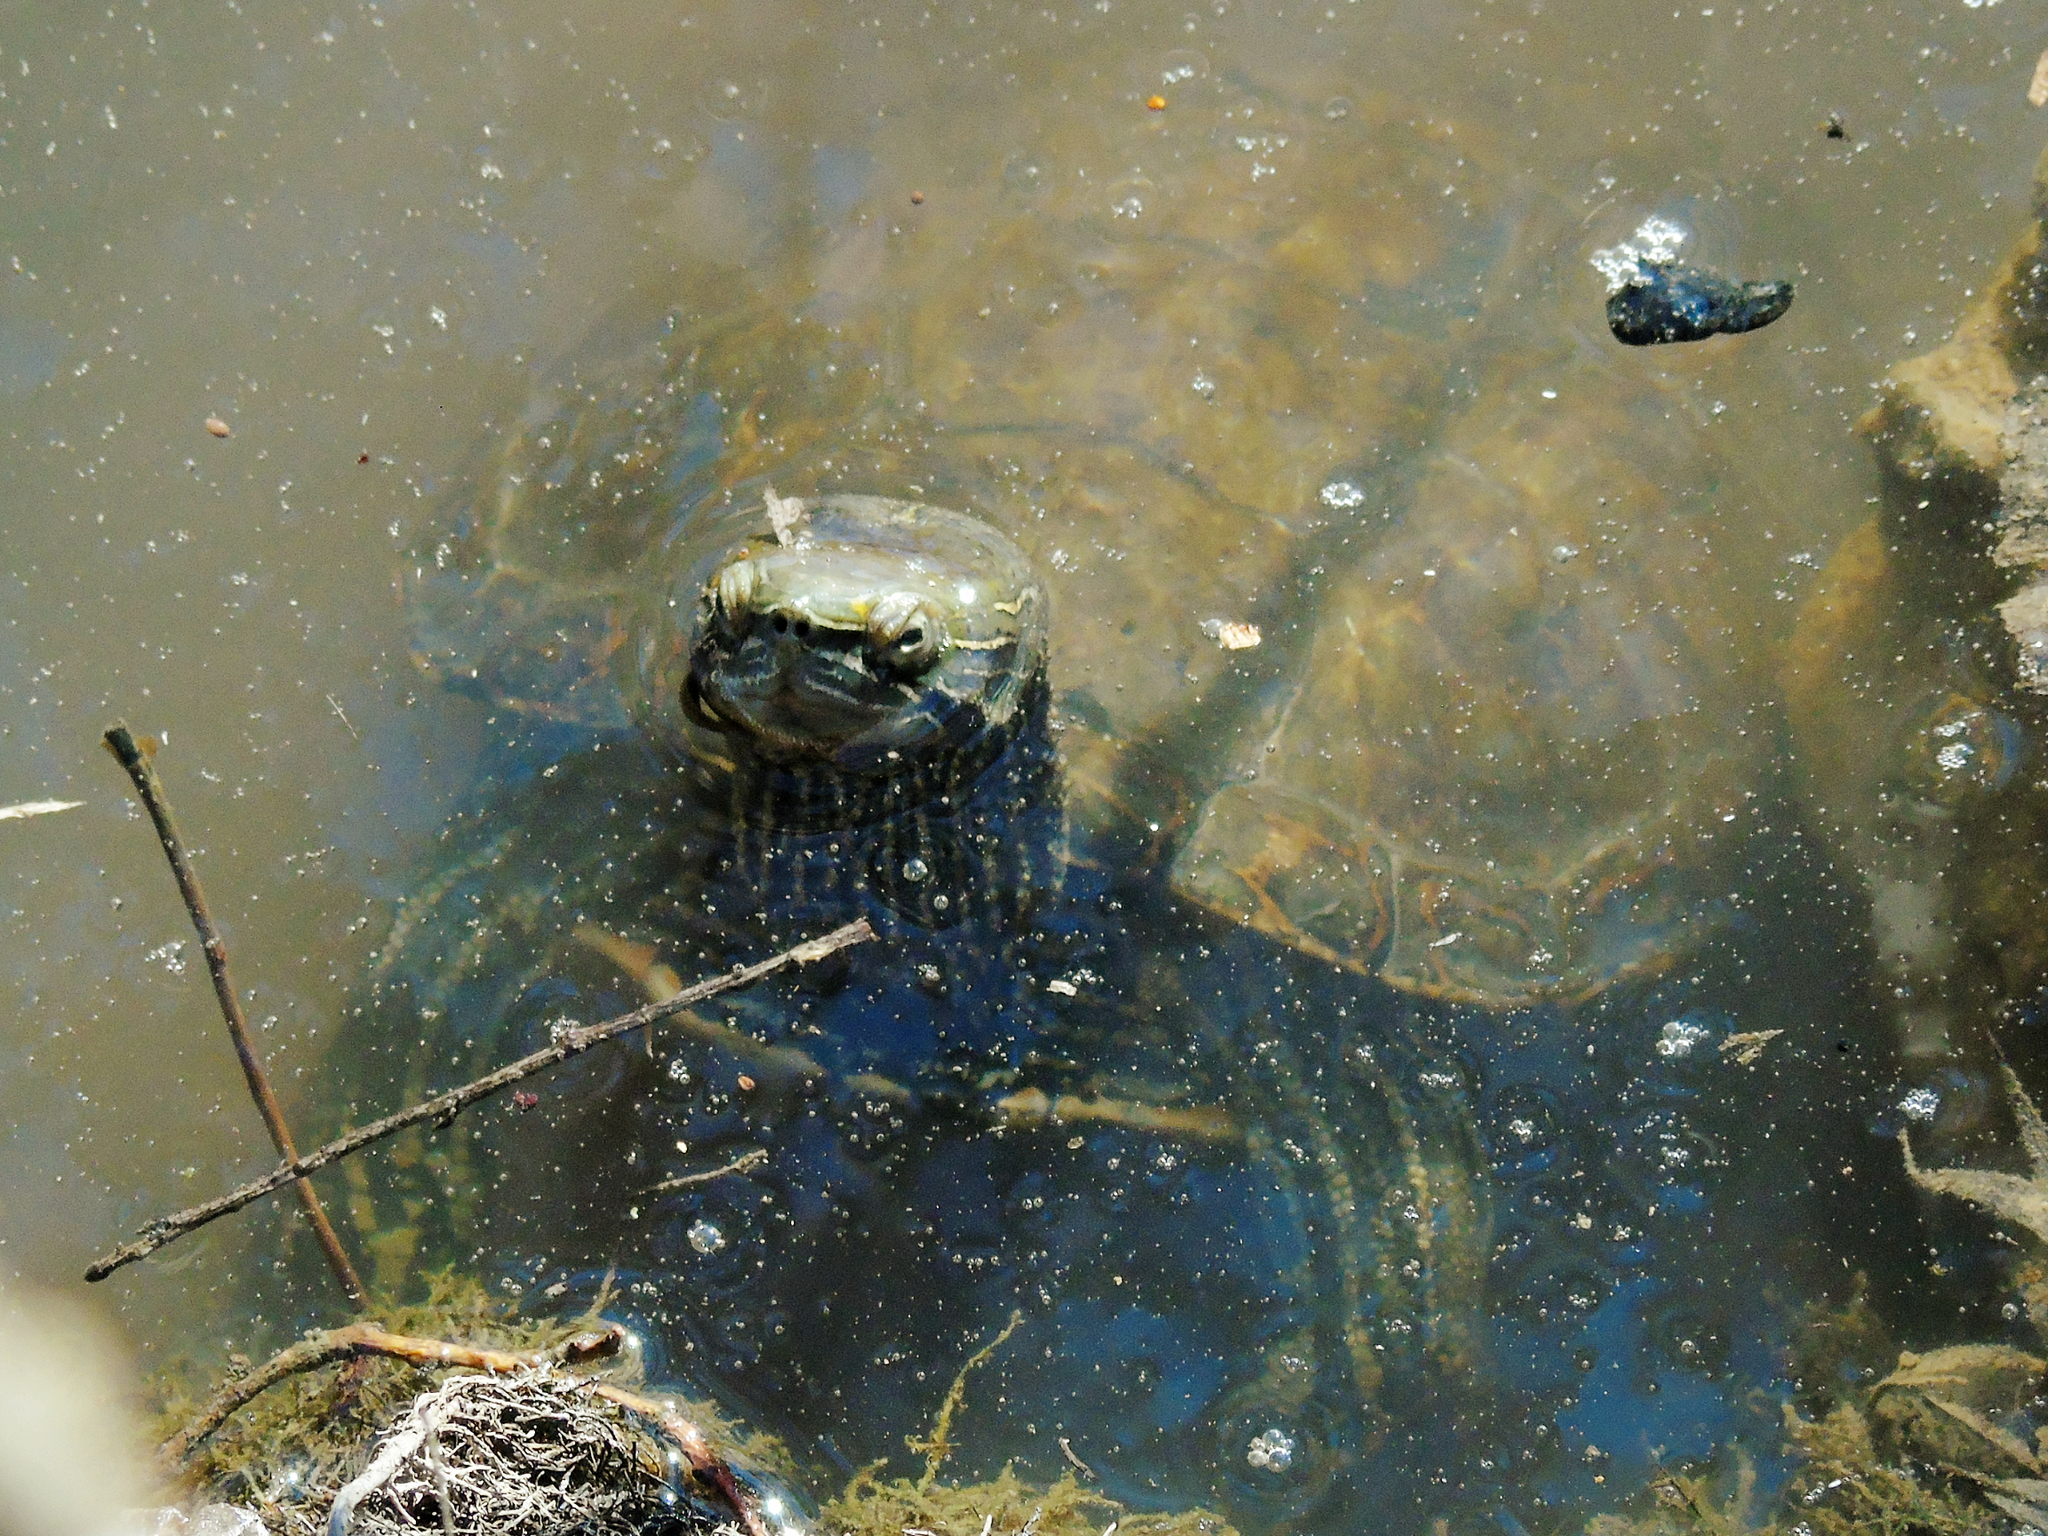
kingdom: Animalia
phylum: Chordata
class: Testudines
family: Geoemydidae
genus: Mauremys
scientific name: Mauremys caspica
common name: Caspian turtle
